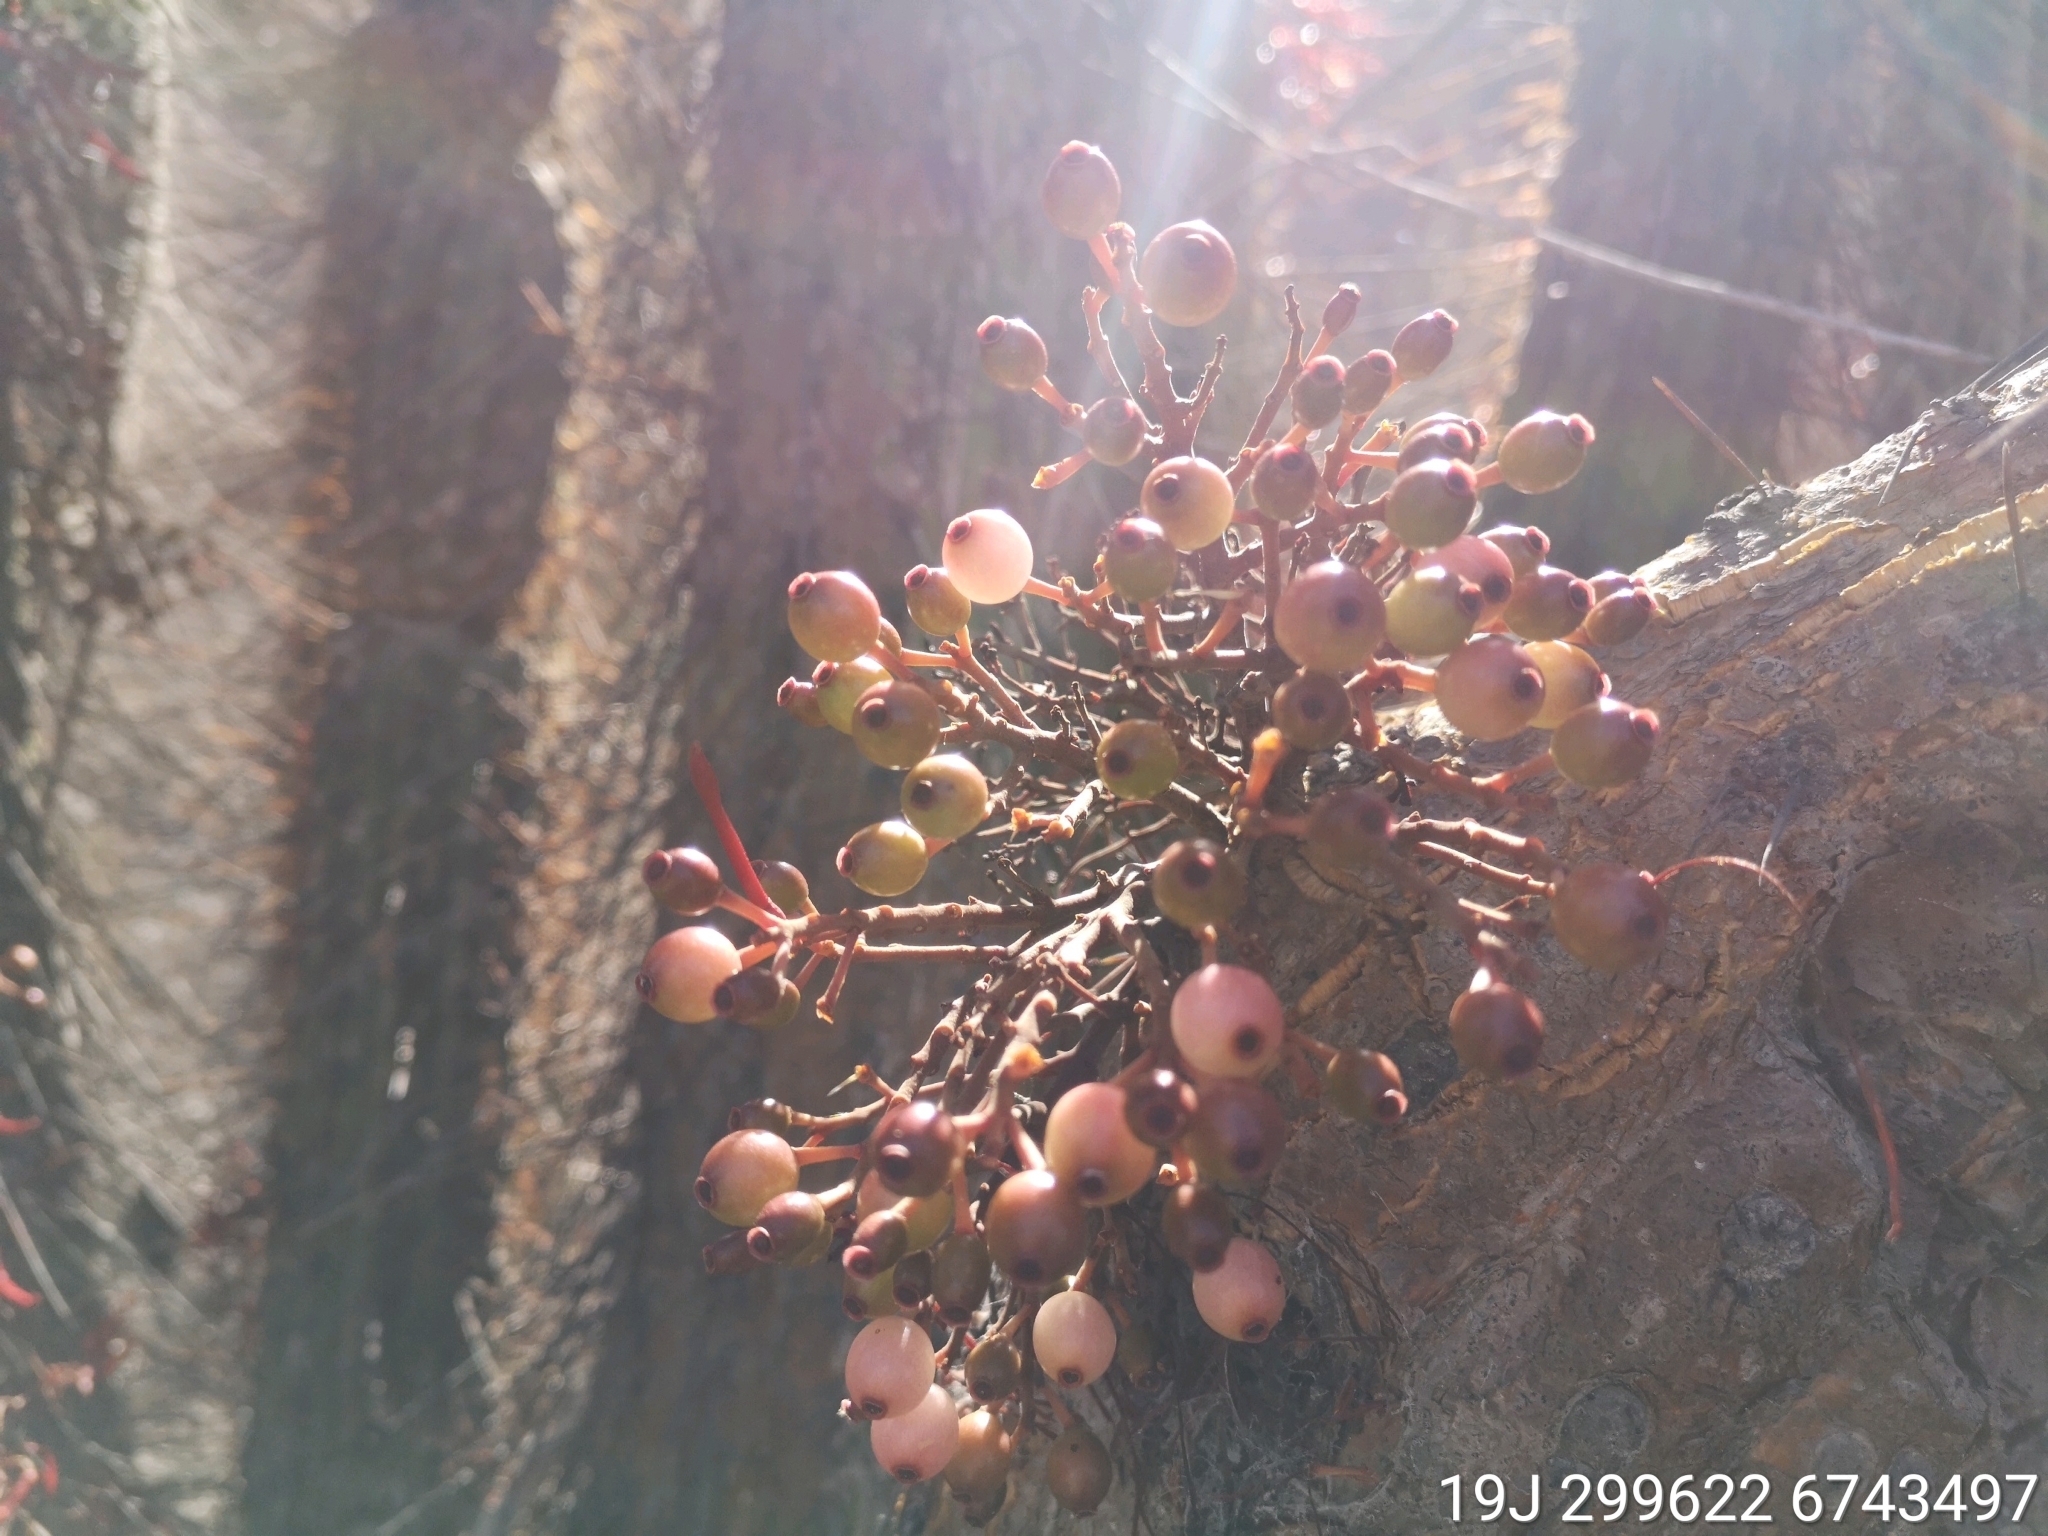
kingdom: Plantae
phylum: Tracheophyta
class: Magnoliopsida
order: Santalales
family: Loranthaceae
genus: Tristerix
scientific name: Tristerix aphyllus
